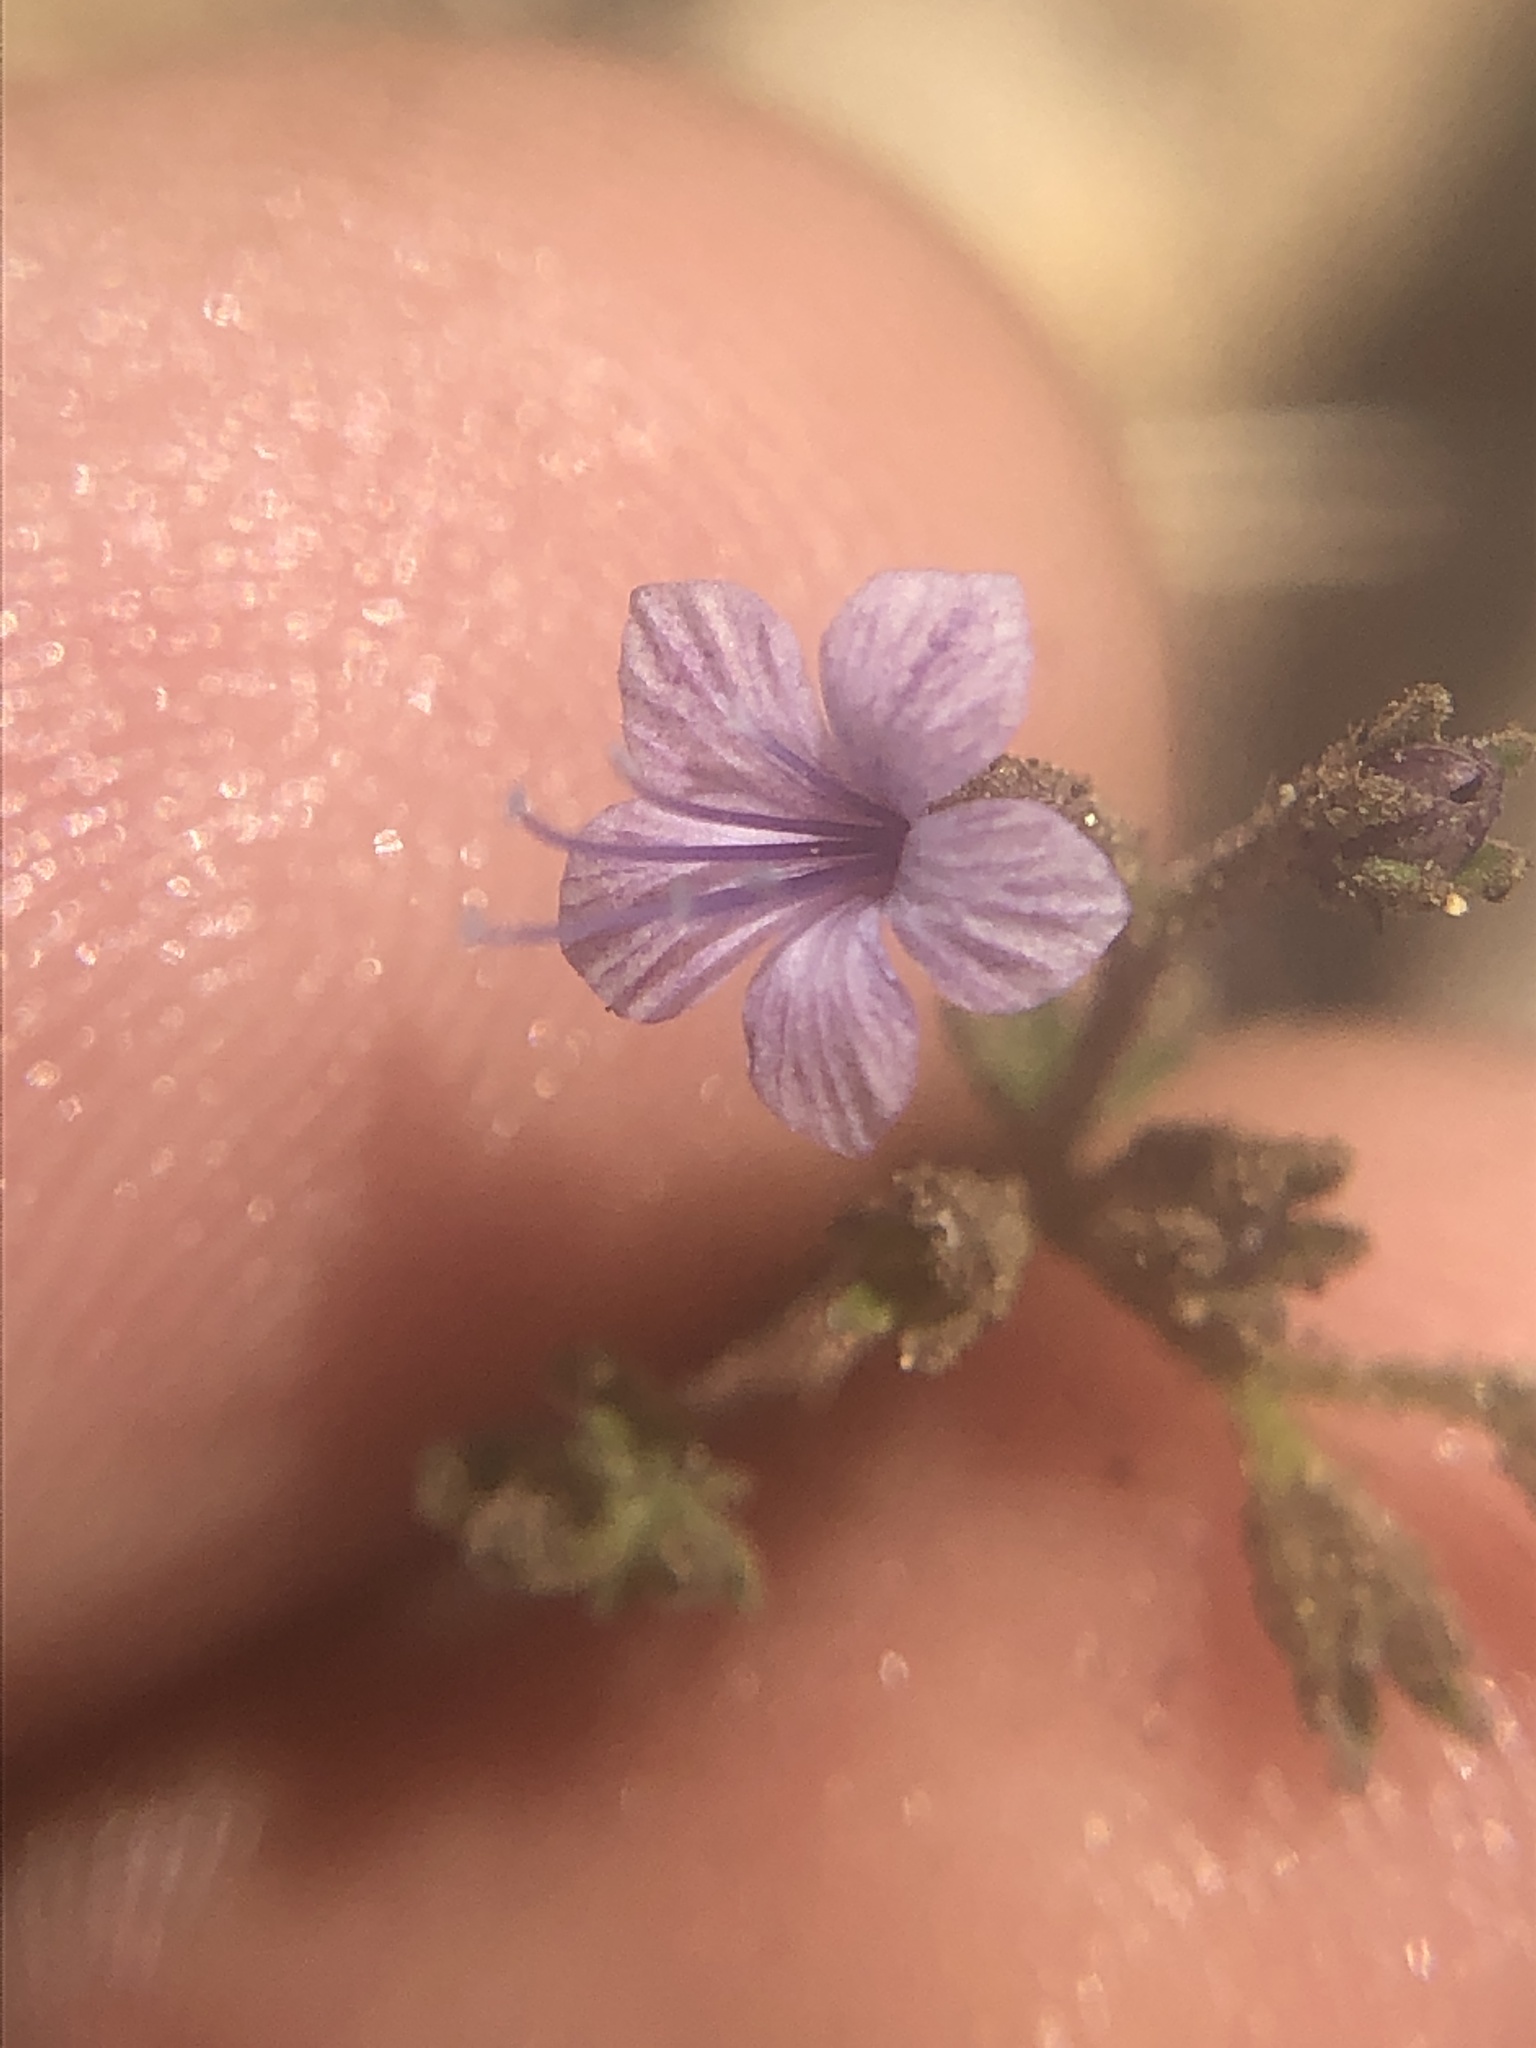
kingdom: Plantae
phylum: Tracheophyta
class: Magnoliopsida
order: Ericales
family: Polemoniaceae
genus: Allophyllum
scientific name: Allophyllum glutinosum
